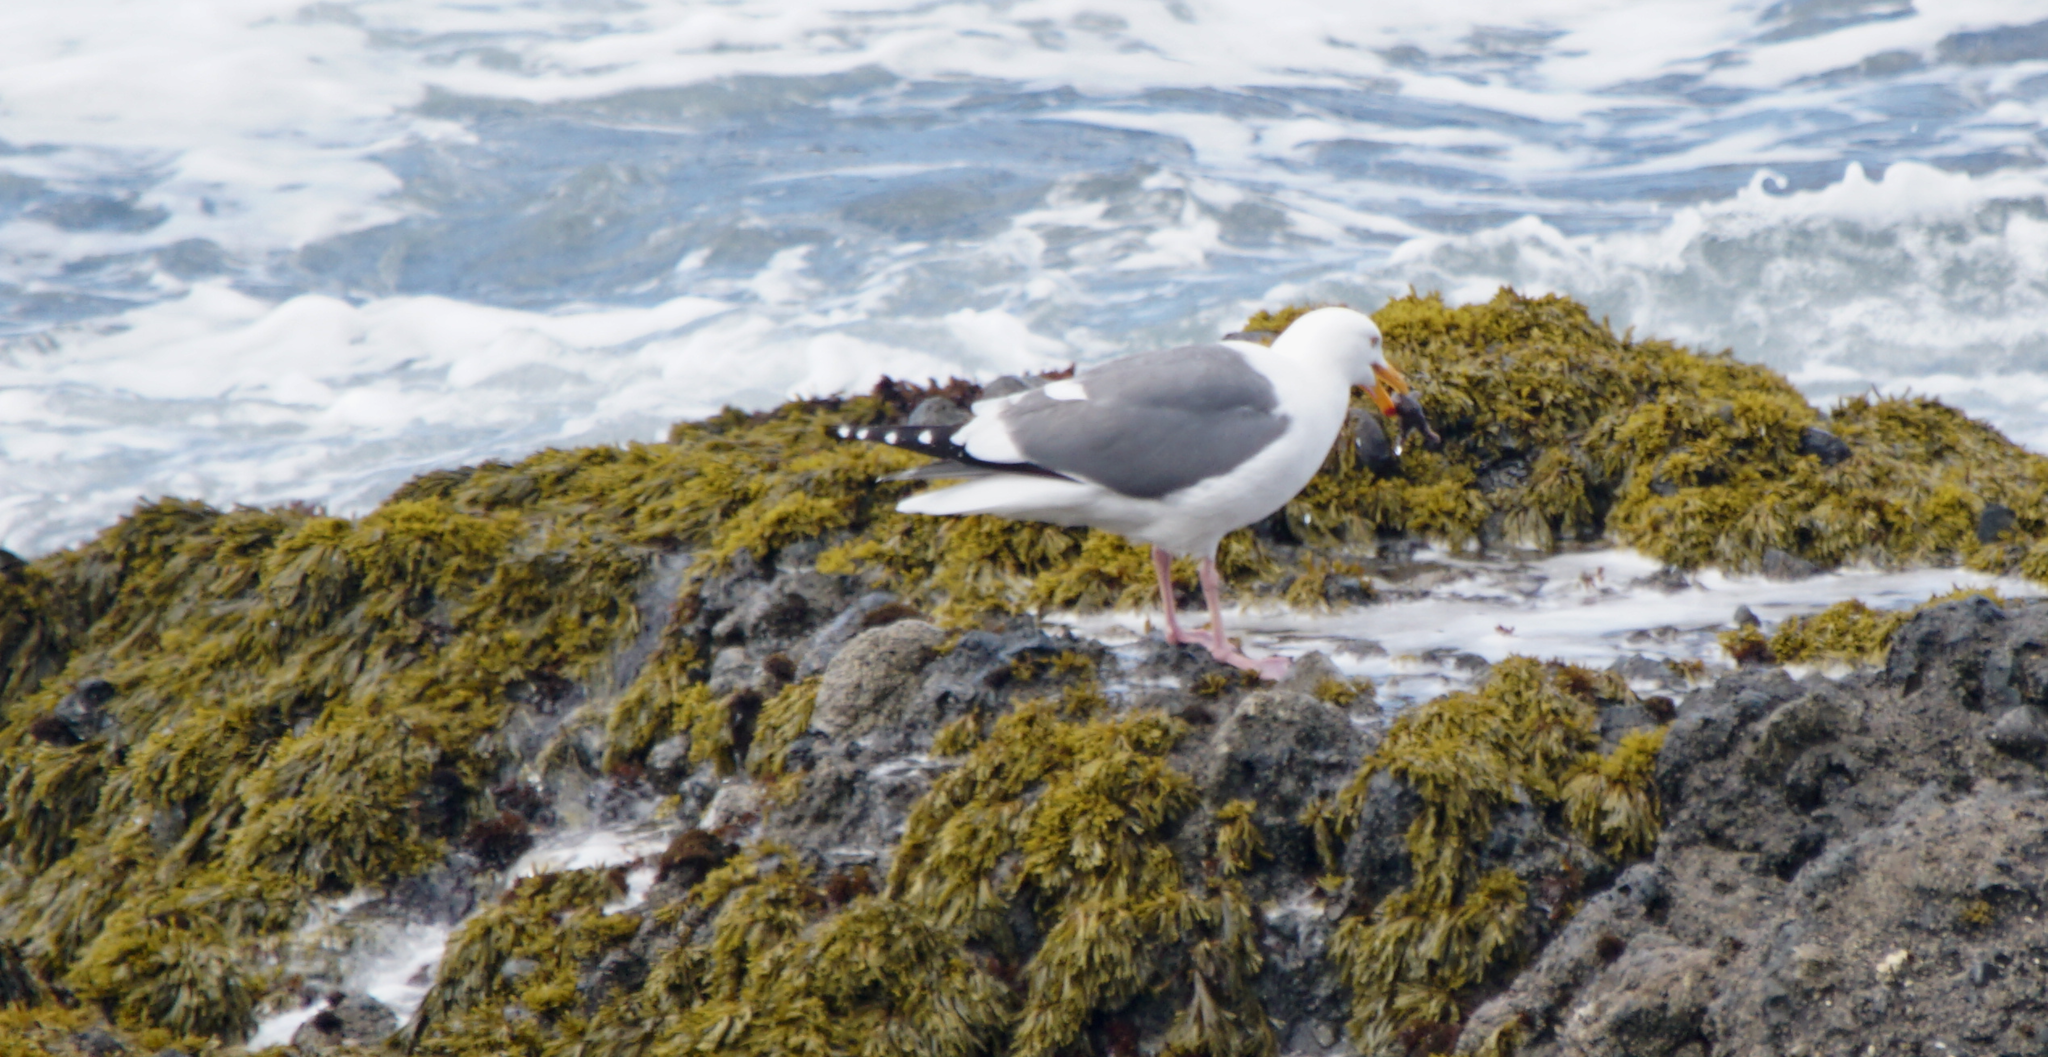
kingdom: Animalia
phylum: Chordata
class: Aves
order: Charadriiformes
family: Laridae
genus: Larus
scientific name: Larus occidentalis
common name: Western gull
